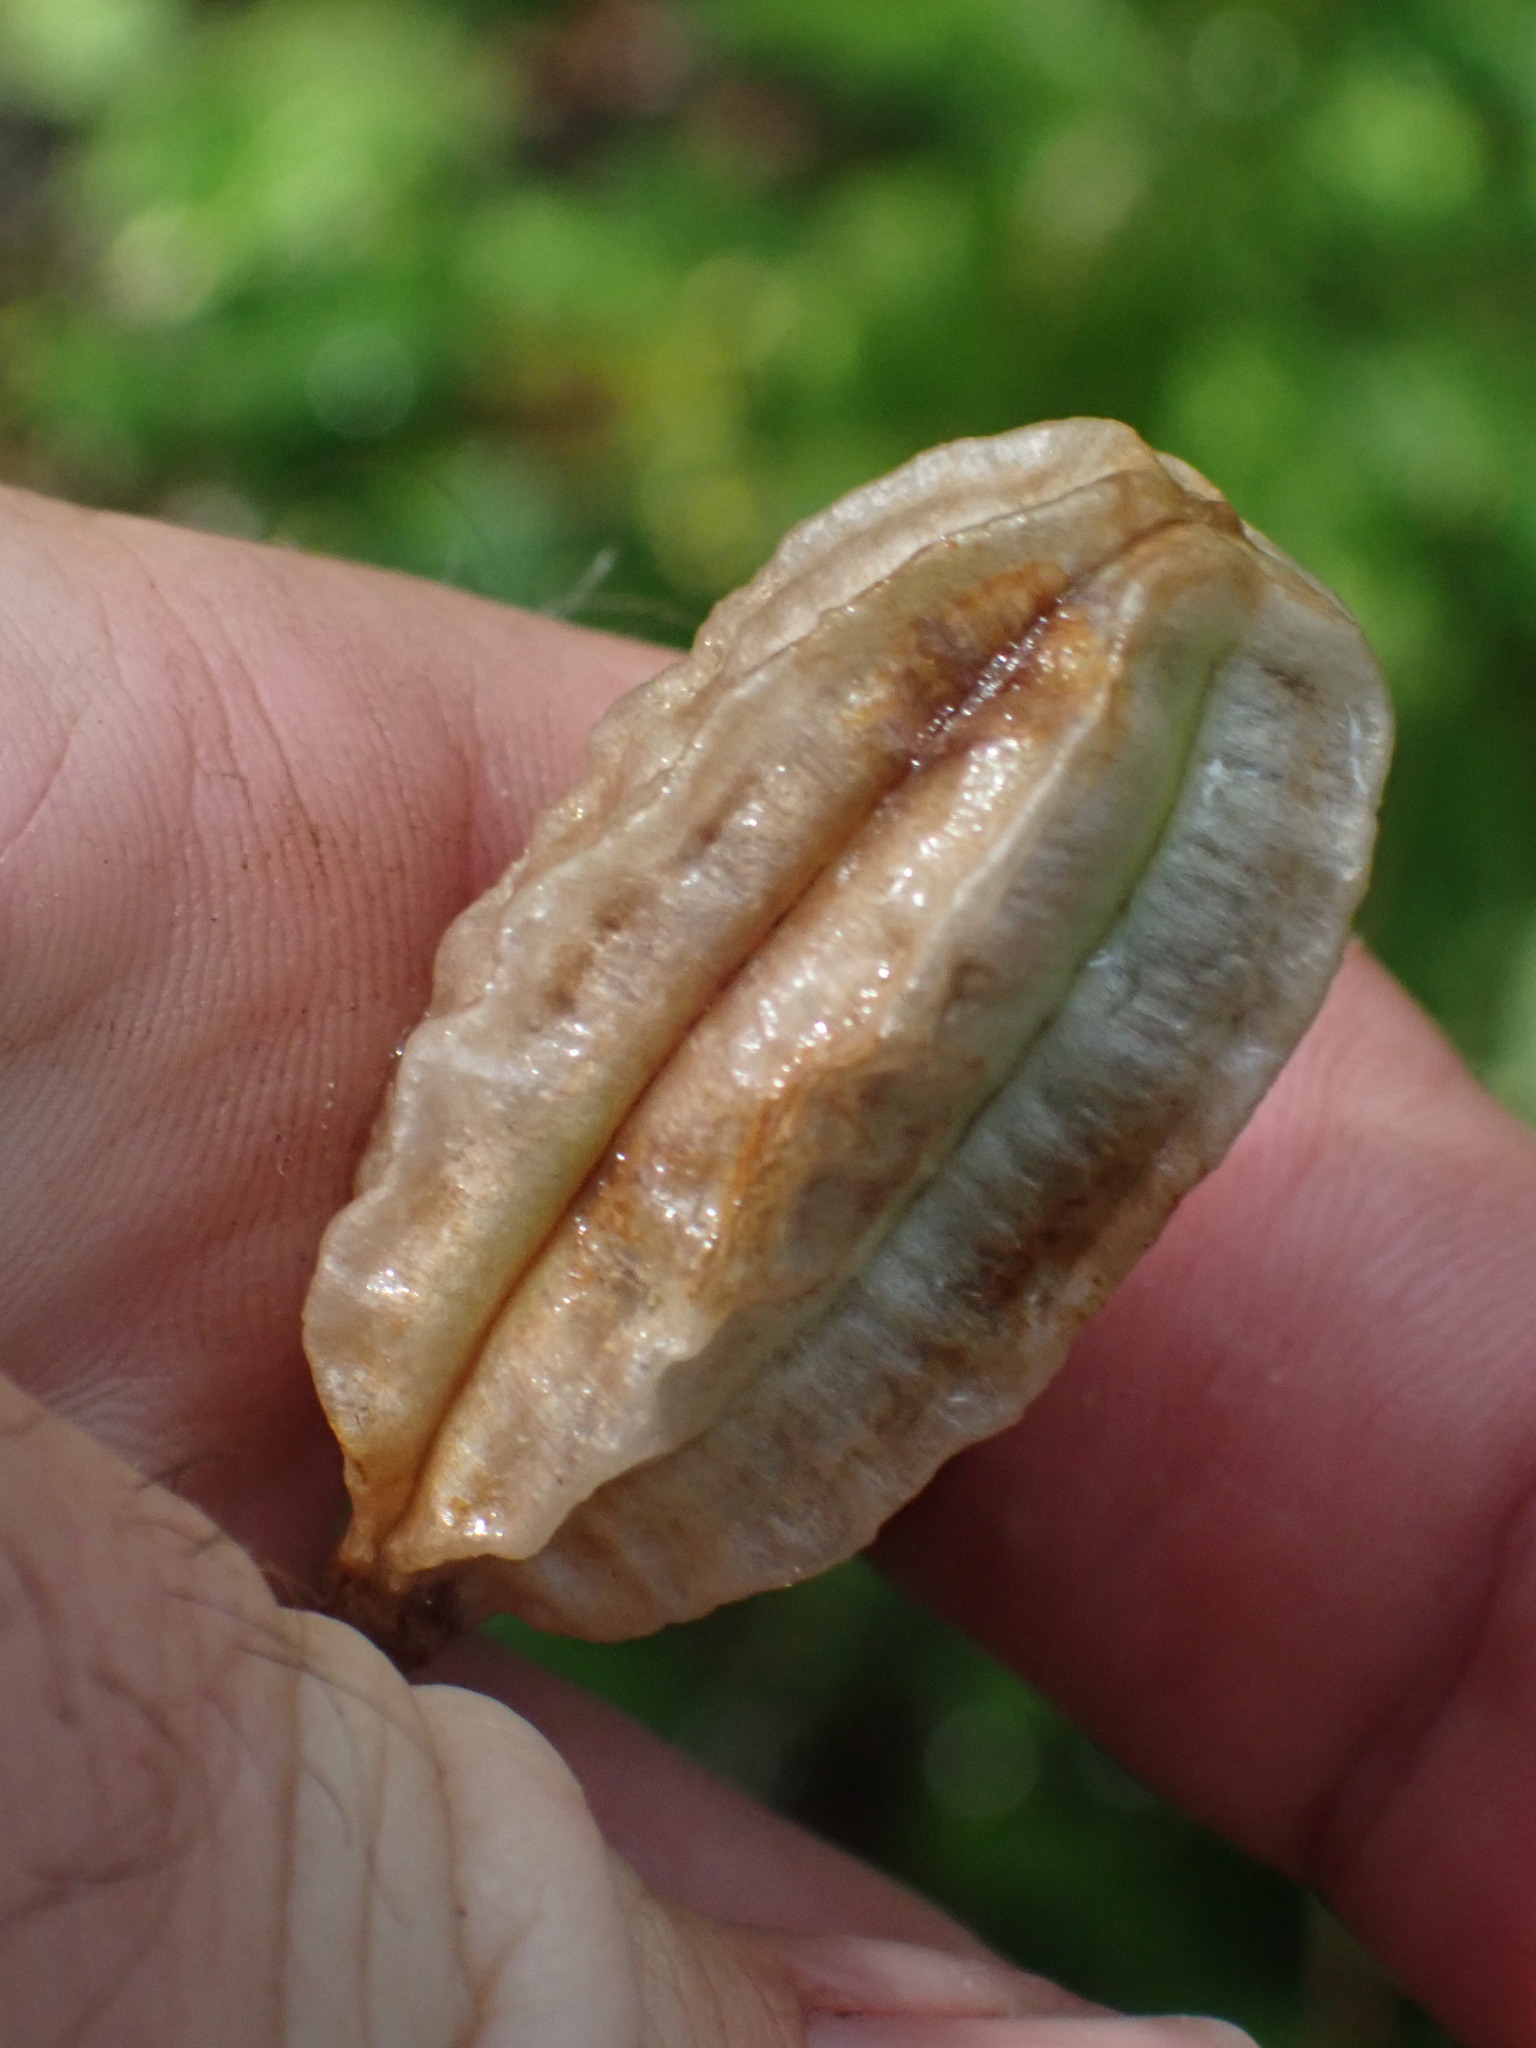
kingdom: Plantae
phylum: Tracheophyta
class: Liliopsida
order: Liliales
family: Liliaceae
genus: Lilium
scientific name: Lilium columbianum
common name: Columbia lily
